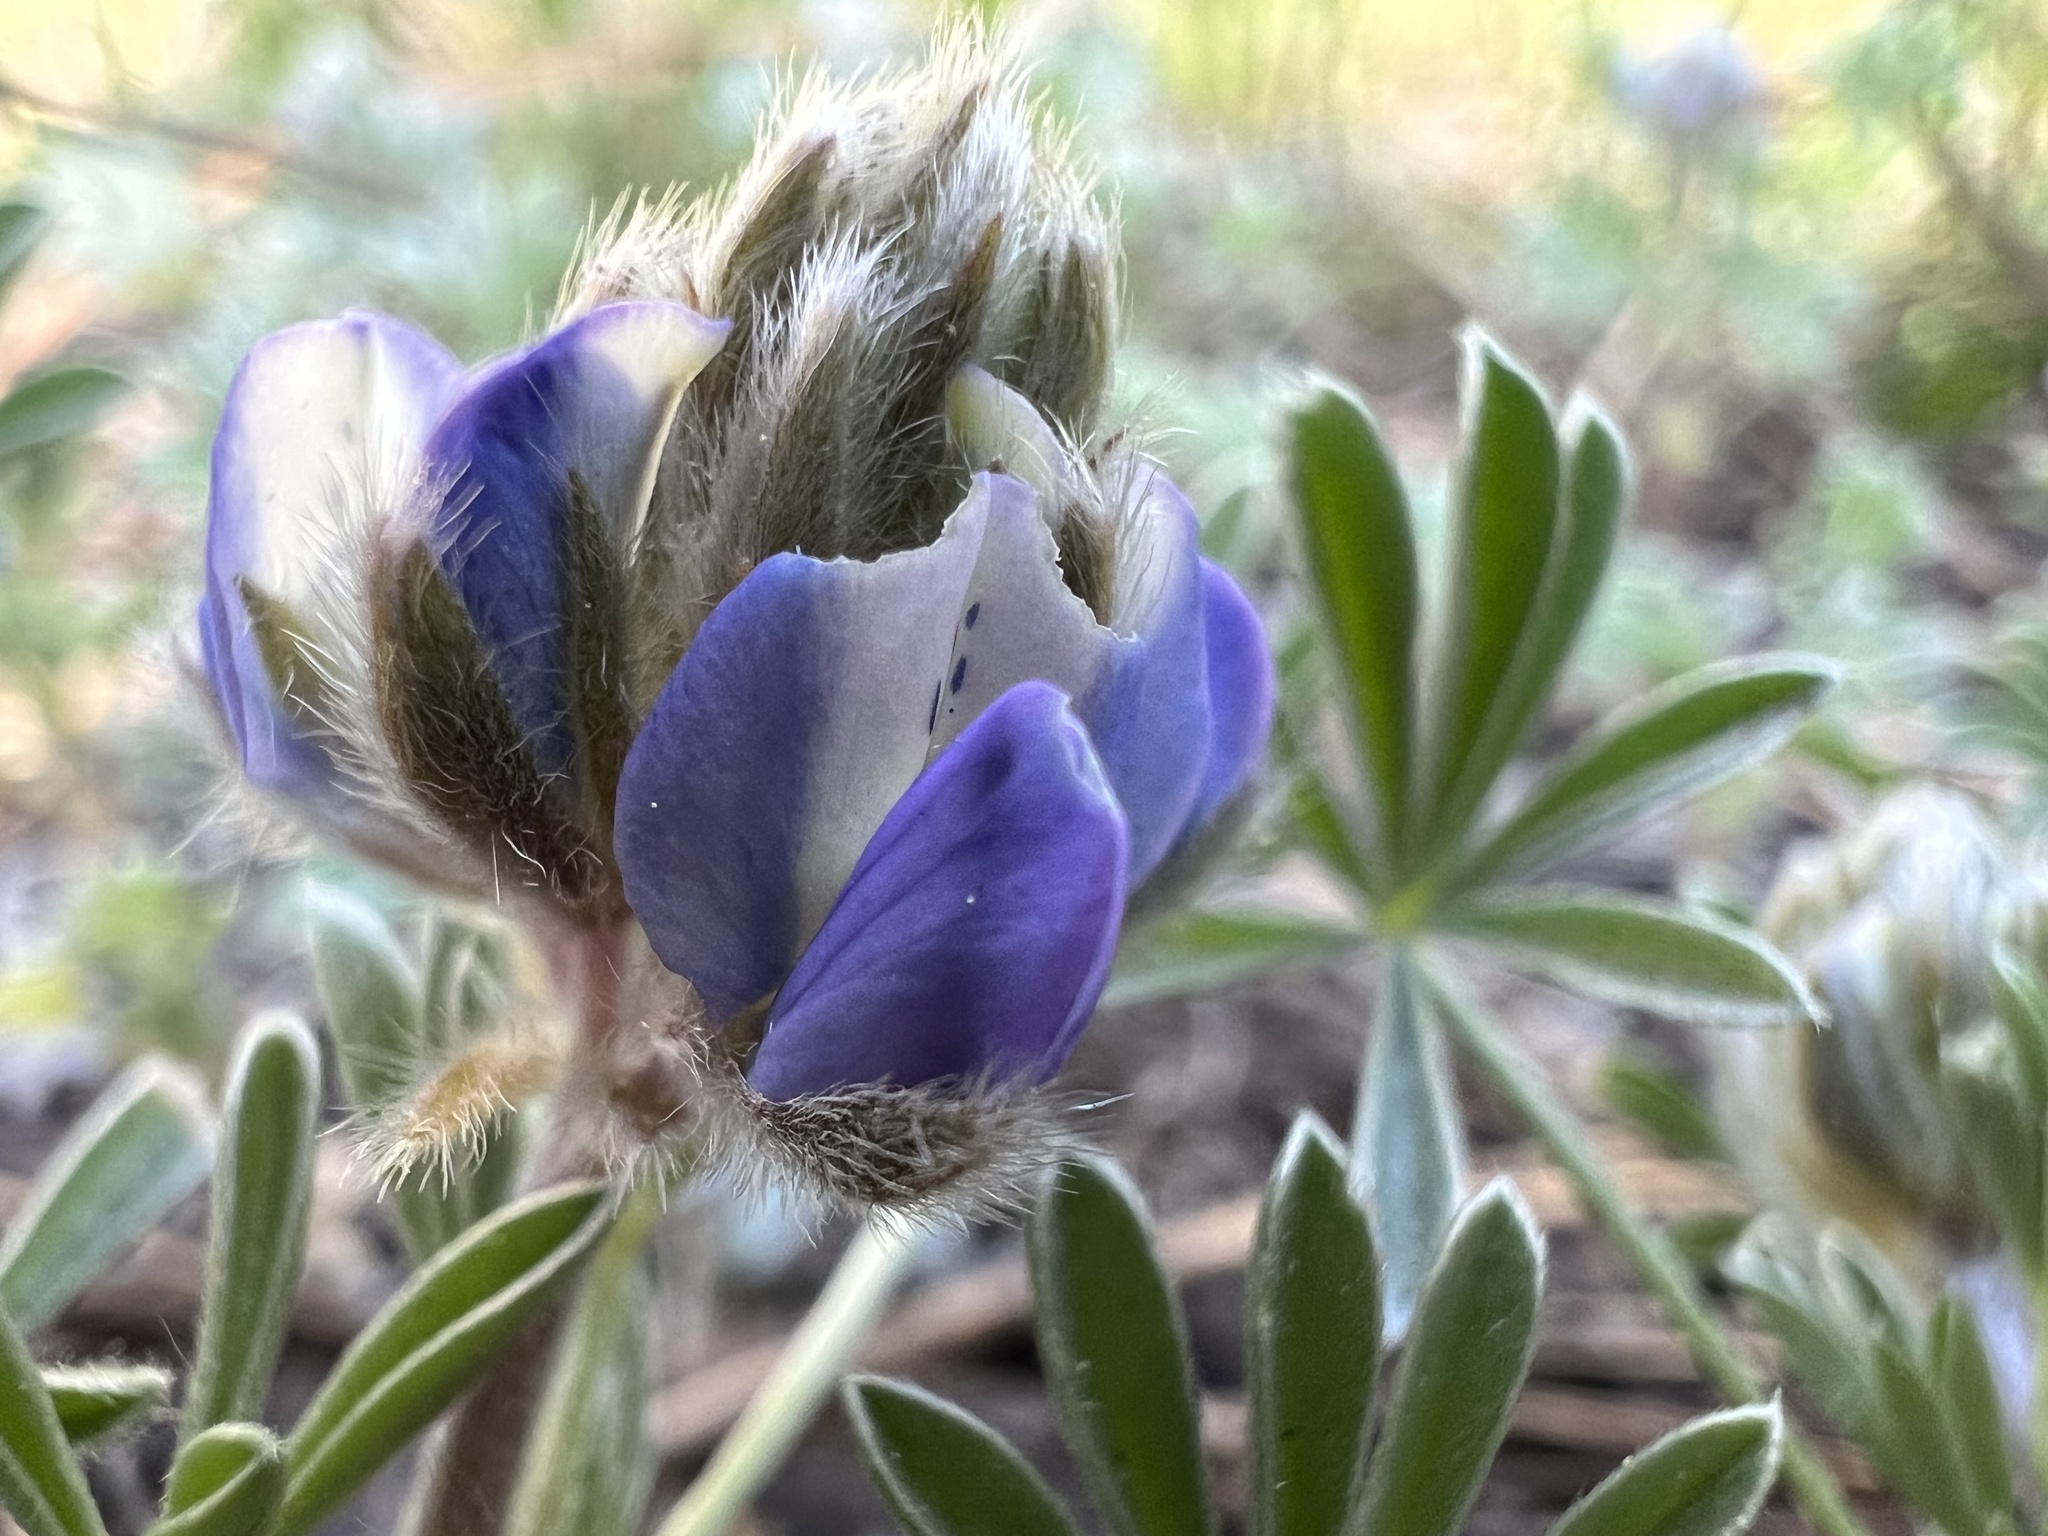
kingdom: Plantae
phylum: Tracheophyta
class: Magnoliopsida
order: Fabales
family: Fabaceae
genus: Lupinus
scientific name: Lupinus breweri
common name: Brewer's lupine
